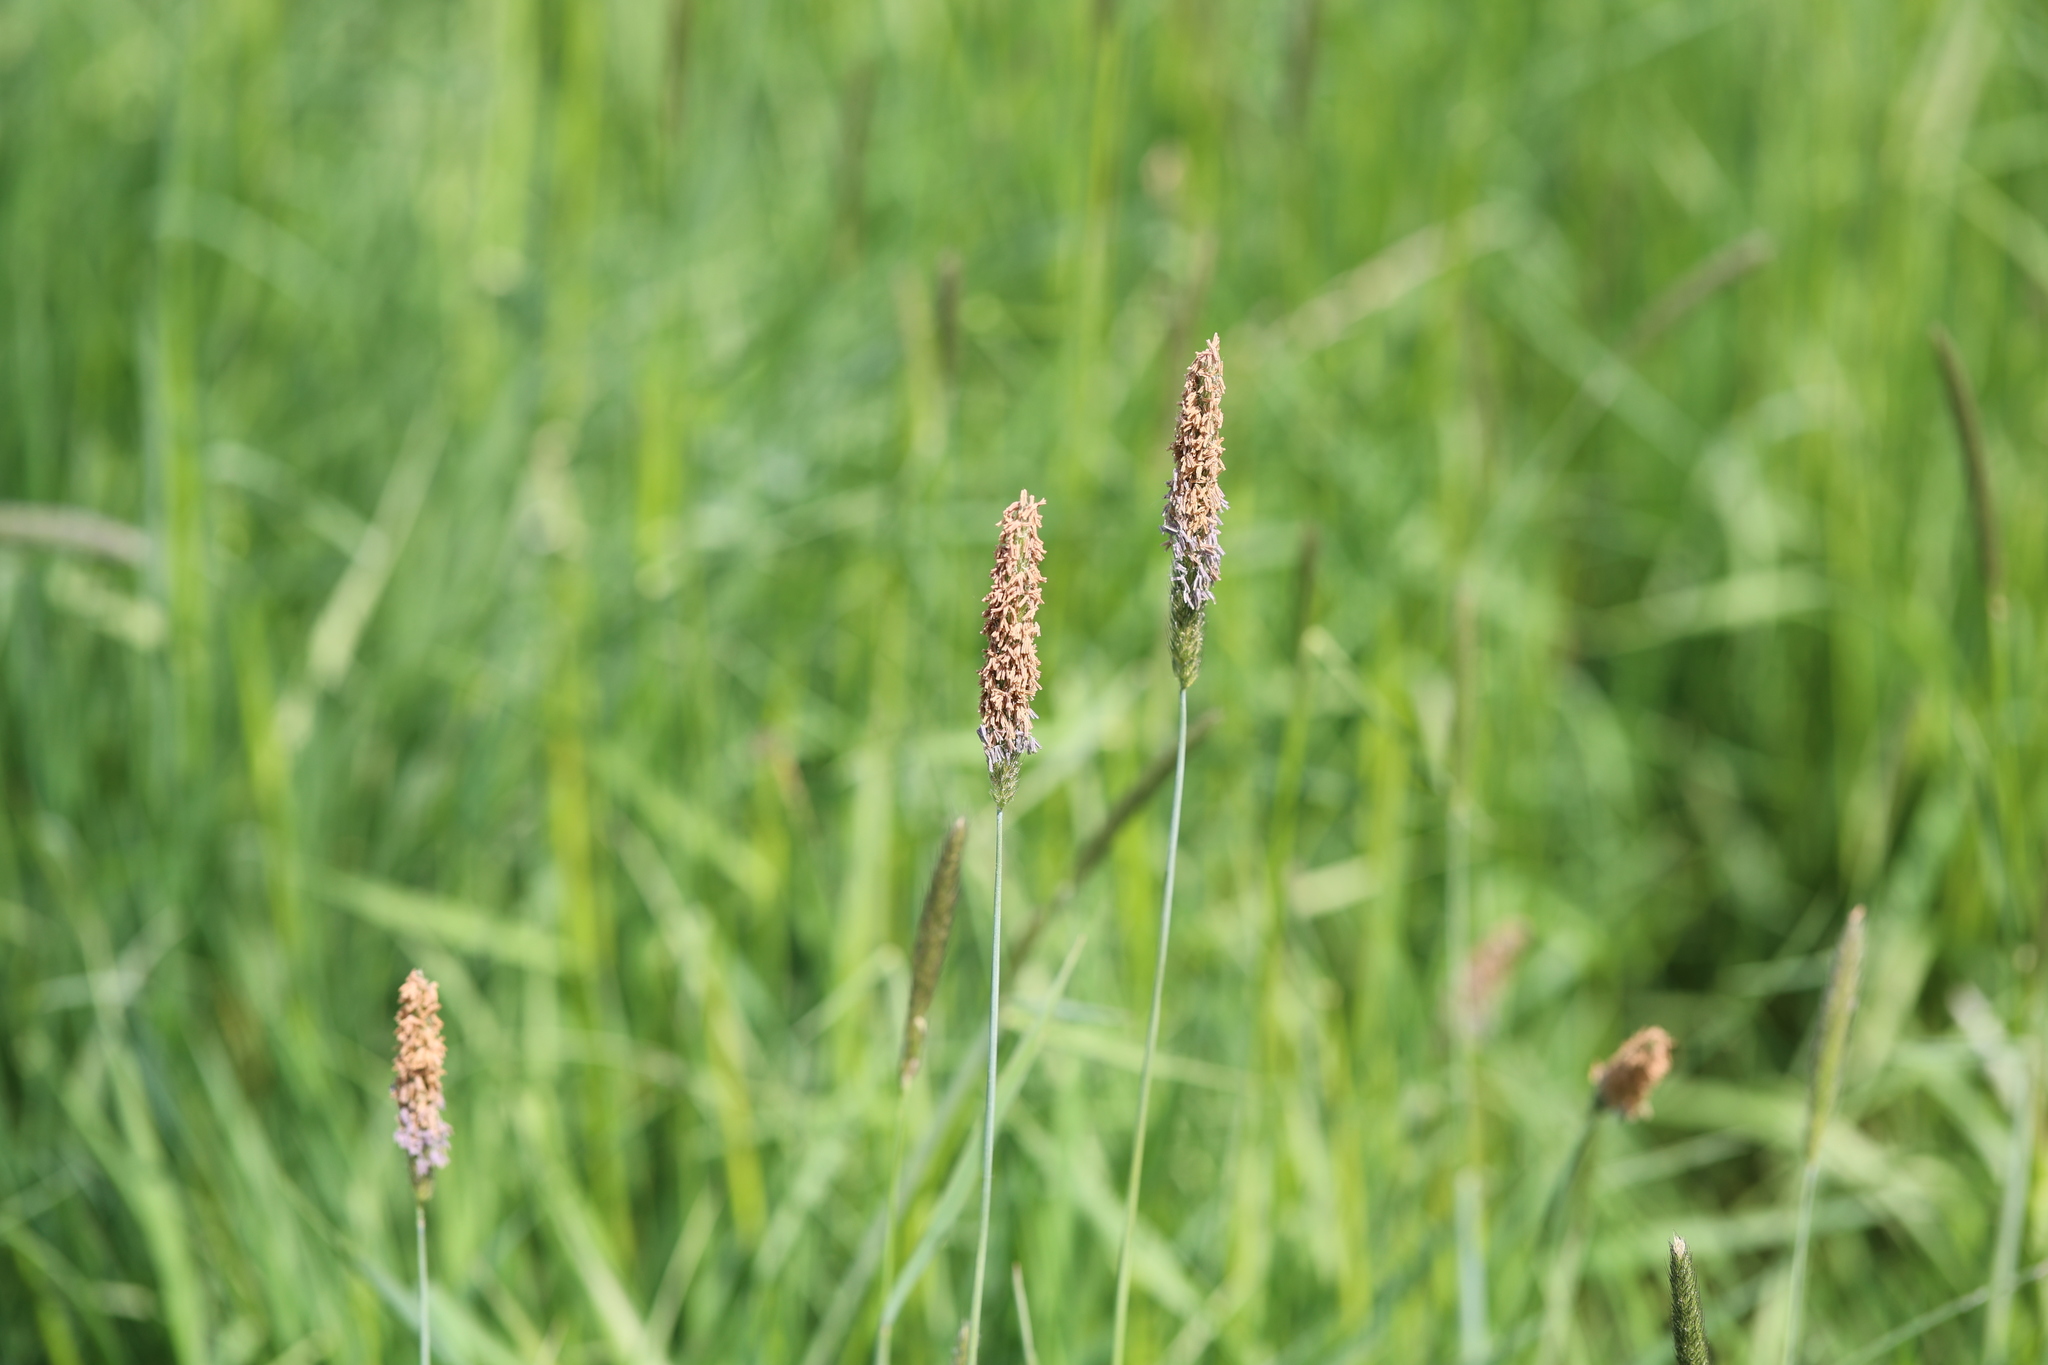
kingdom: Plantae
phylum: Tracheophyta
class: Liliopsida
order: Poales
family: Poaceae
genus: Alopecurus
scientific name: Alopecurus geniculatus
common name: Water foxtail
